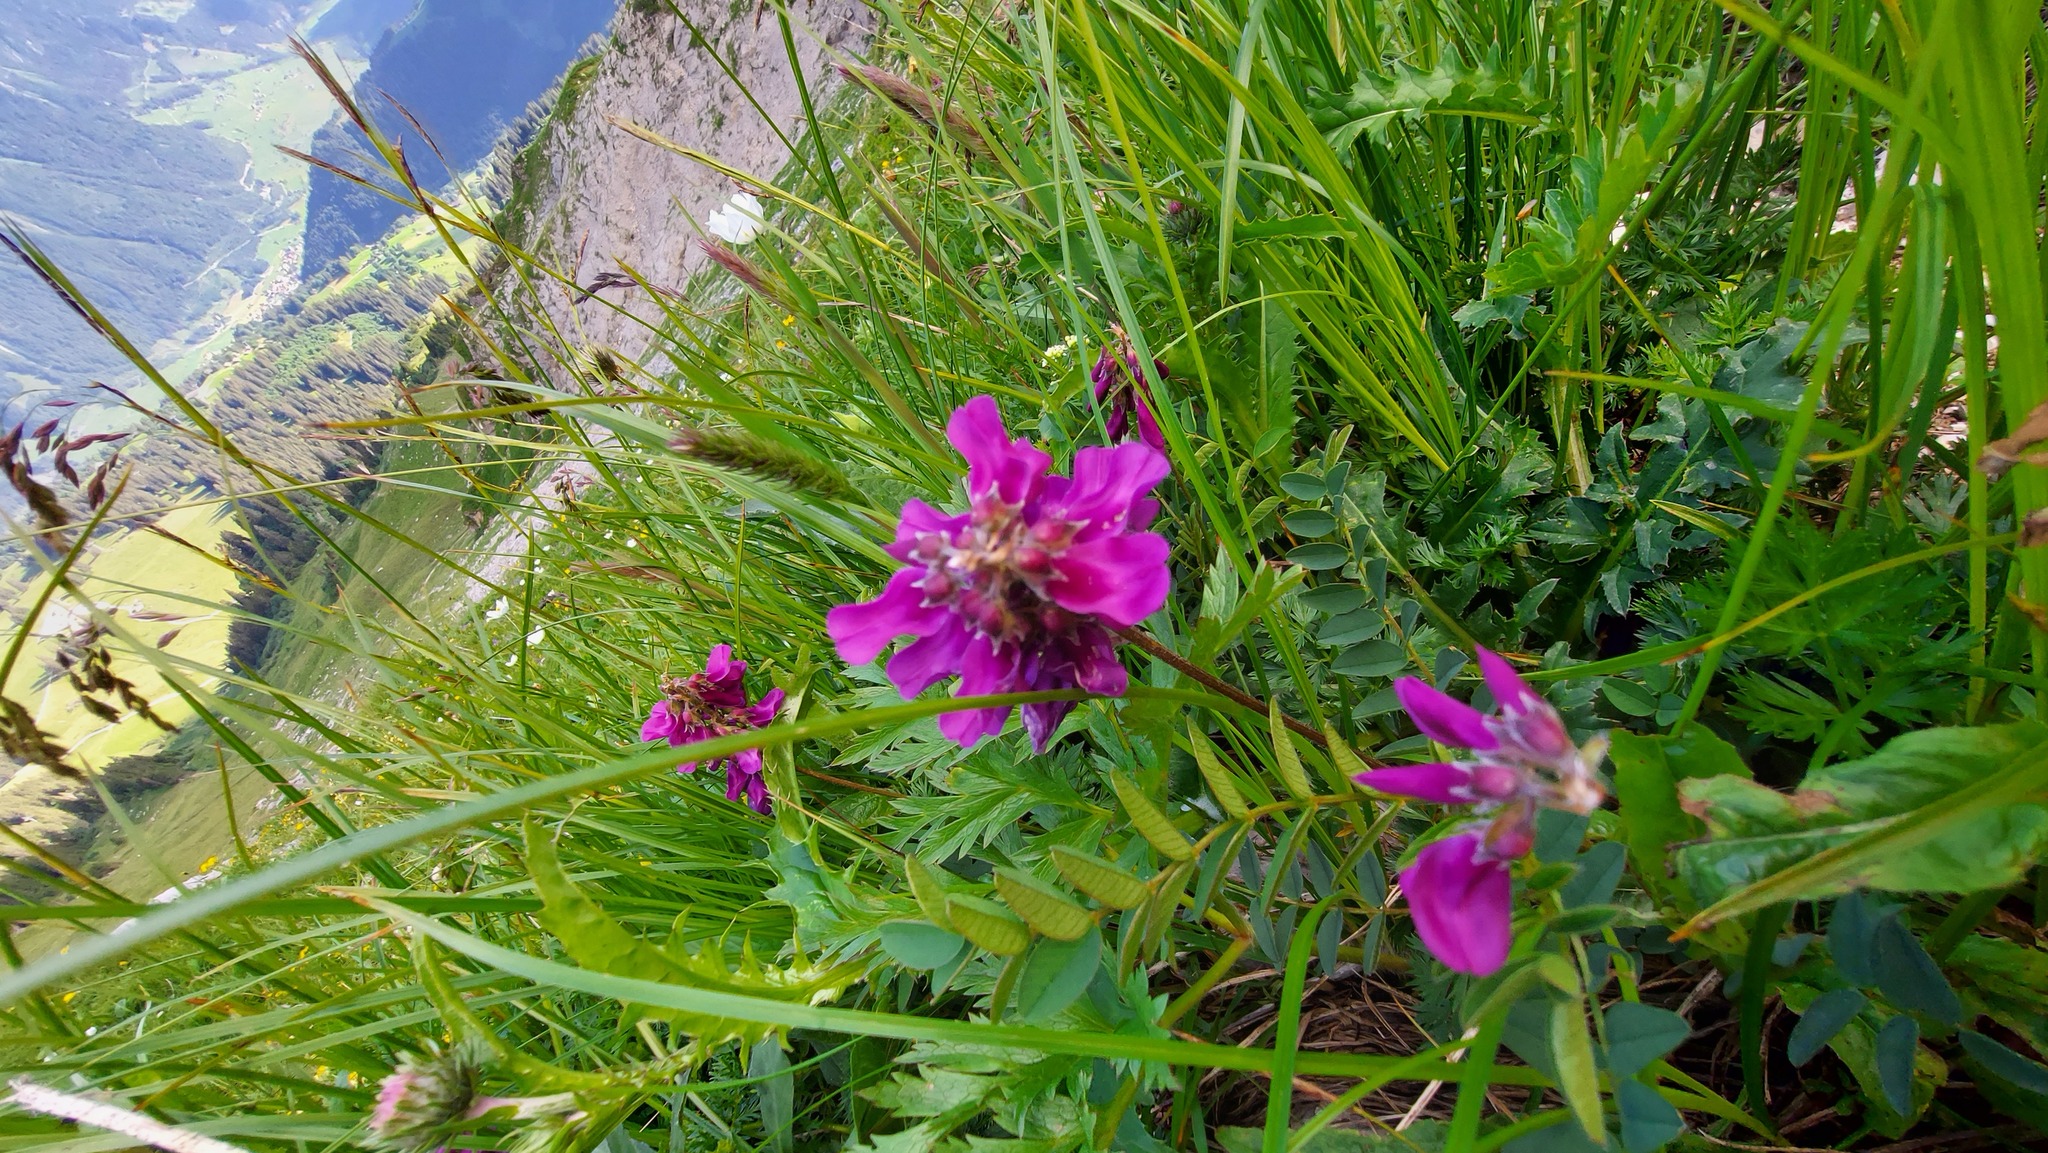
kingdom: Plantae
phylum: Tracheophyta
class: Magnoliopsida
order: Fabales
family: Fabaceae
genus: Hedysarum
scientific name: Hedysarum hedysaroides
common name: Alpine french-honeysuckle
